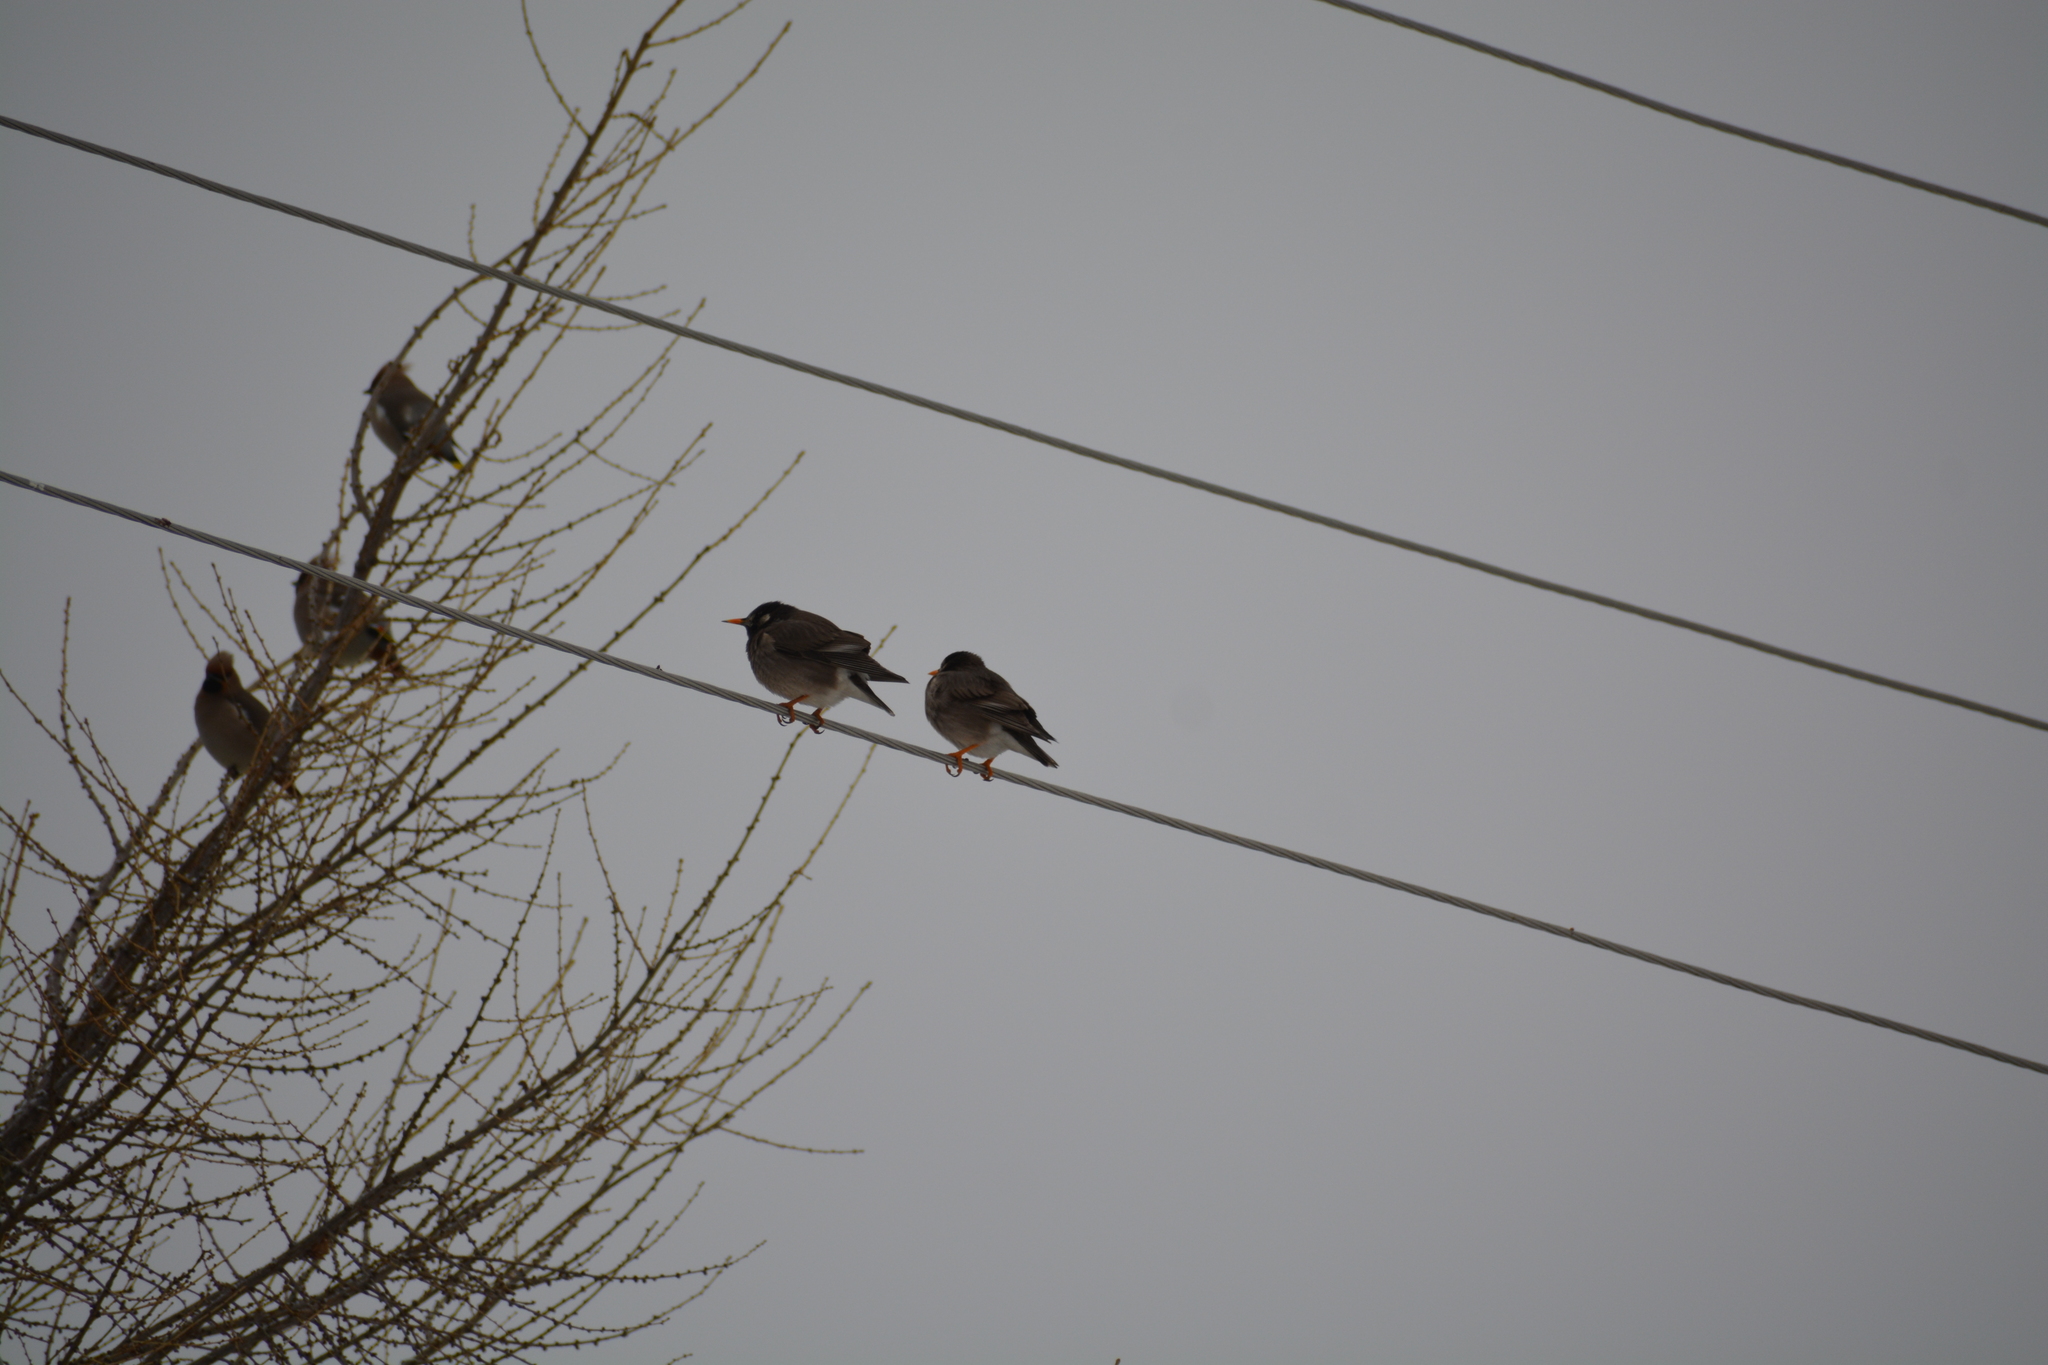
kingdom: Animalia
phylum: Chordata
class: Aves
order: Passeriformes
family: Sturnidae
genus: Spodiopsar
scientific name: Spodiopsar cineraceus
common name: White-cheeked starling
